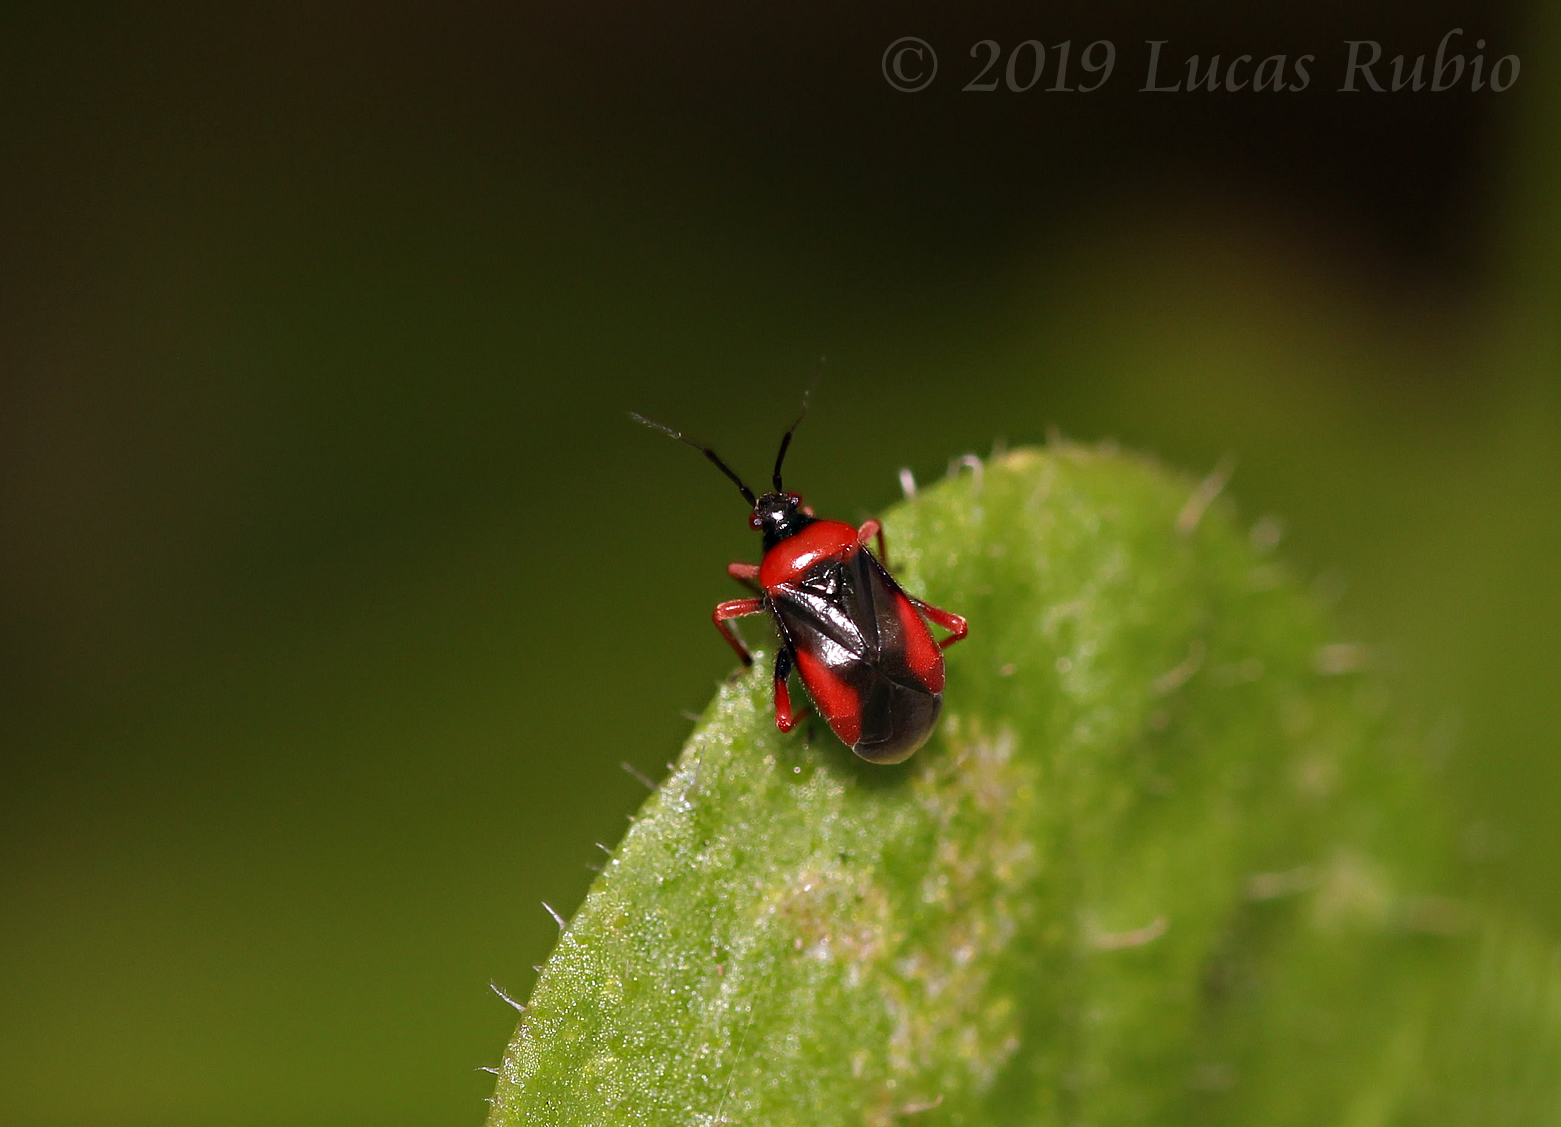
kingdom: Animalia
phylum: Arthropoda
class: Insecta
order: Hemiptera
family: Miridae
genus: Pachymerocerus
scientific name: Pachymerocerus purpurissatus
